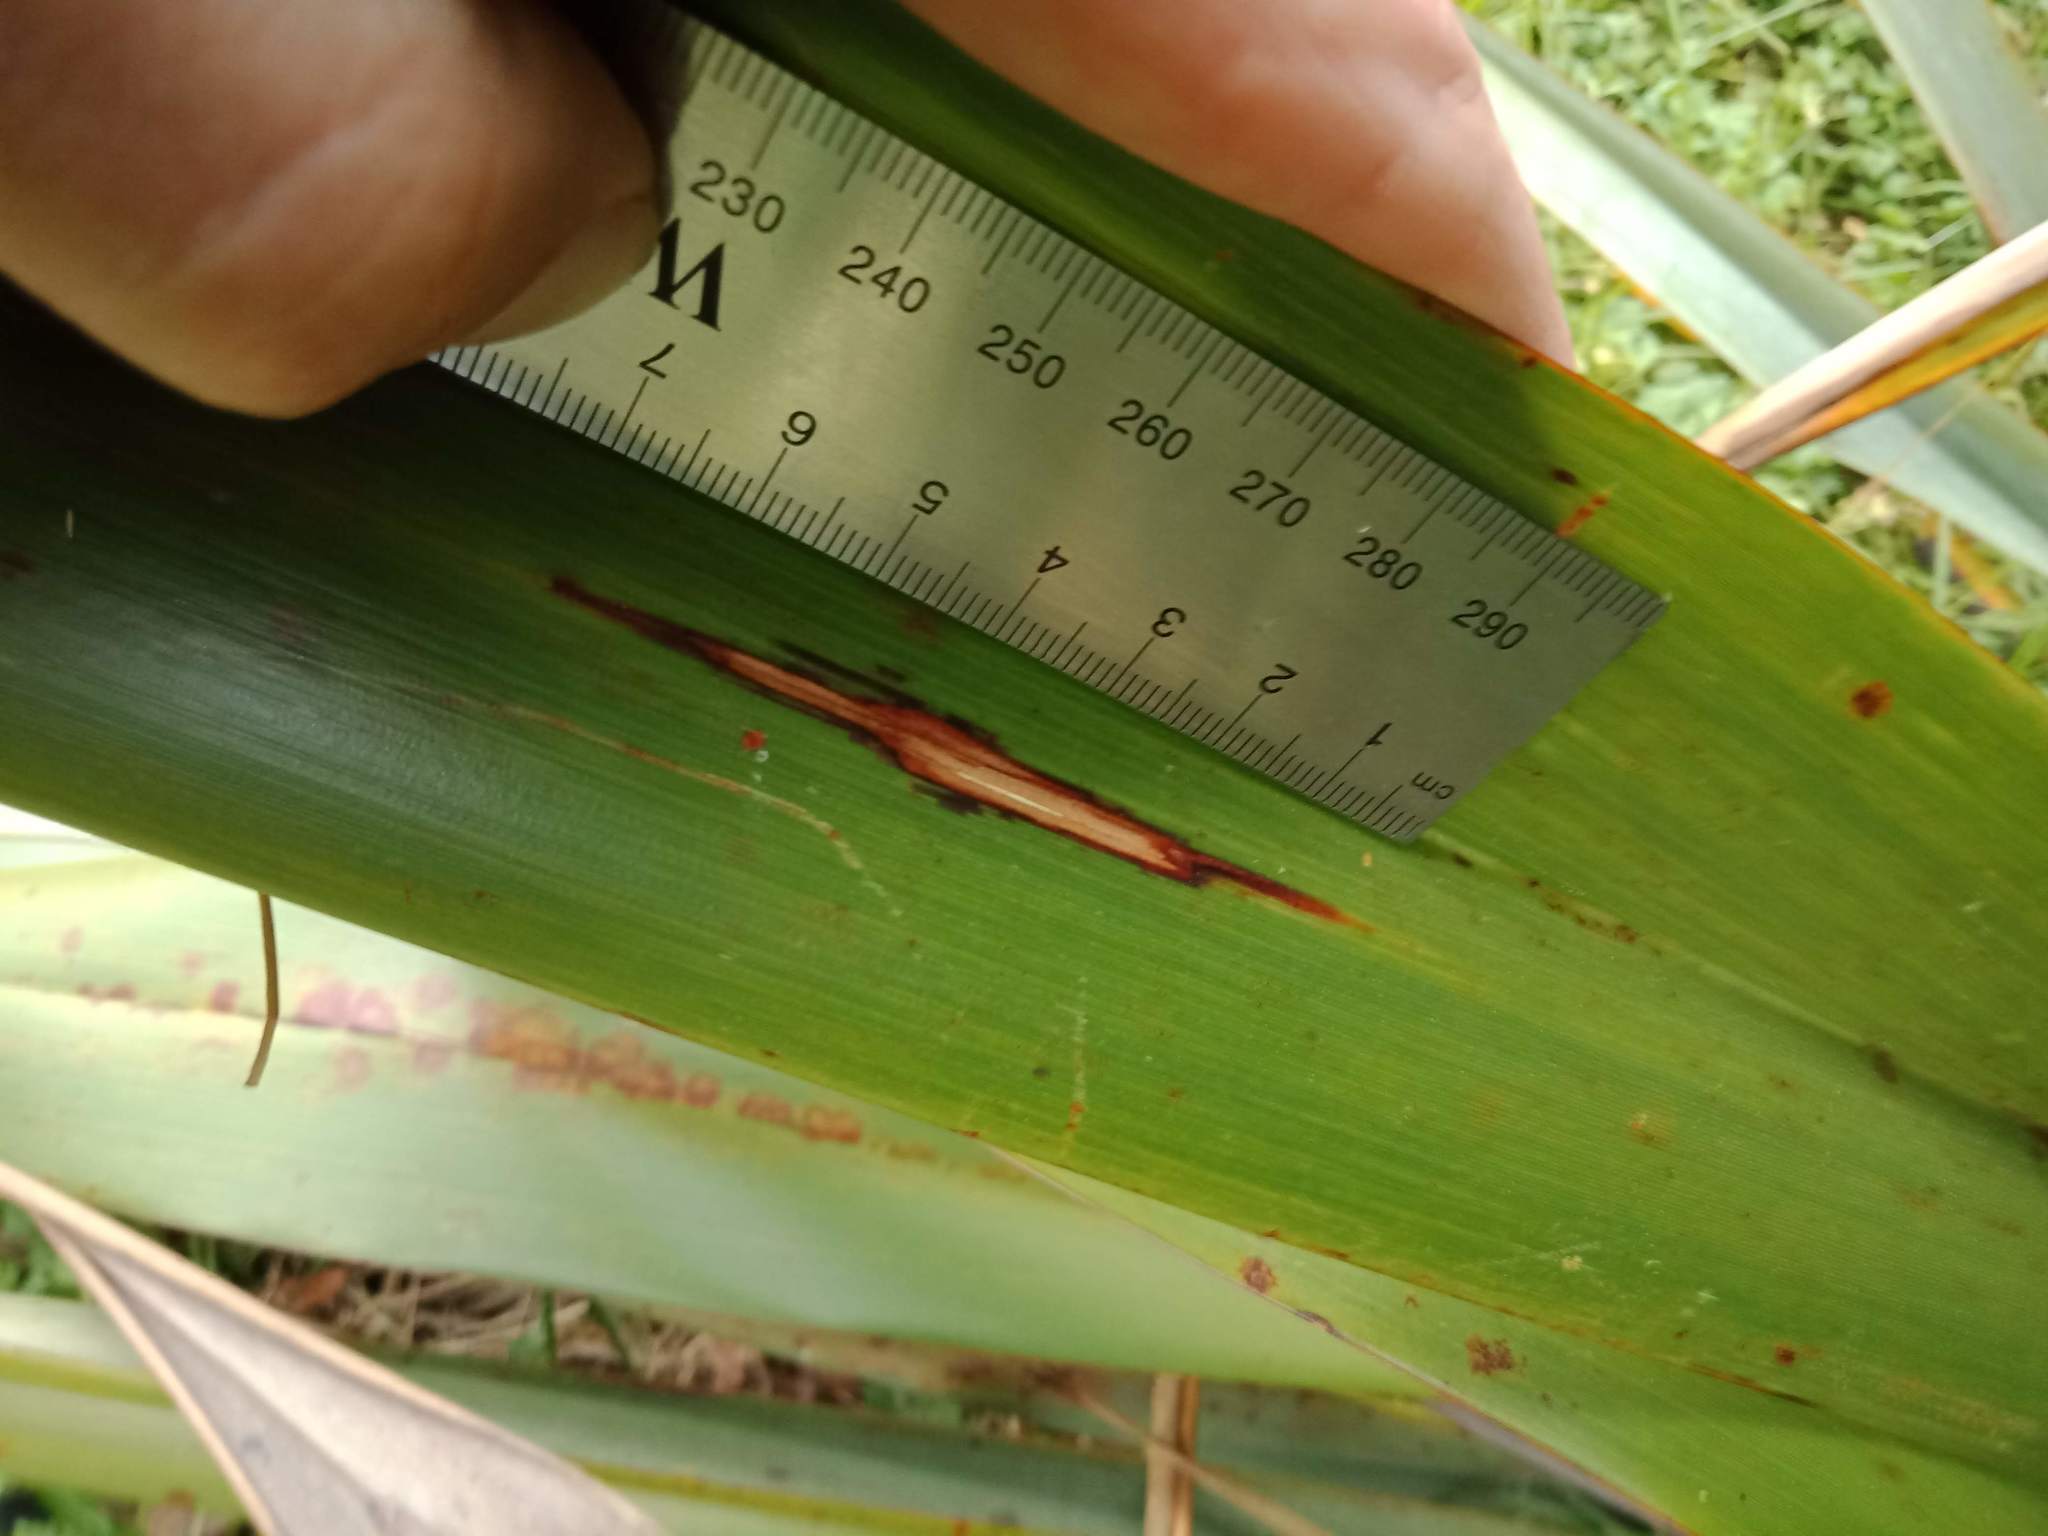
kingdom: Animalia
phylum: Arthropoda
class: Insecta
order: Lepidoptera
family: Geometridae
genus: Orthoclydon
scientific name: Orthoclydon praefectata
